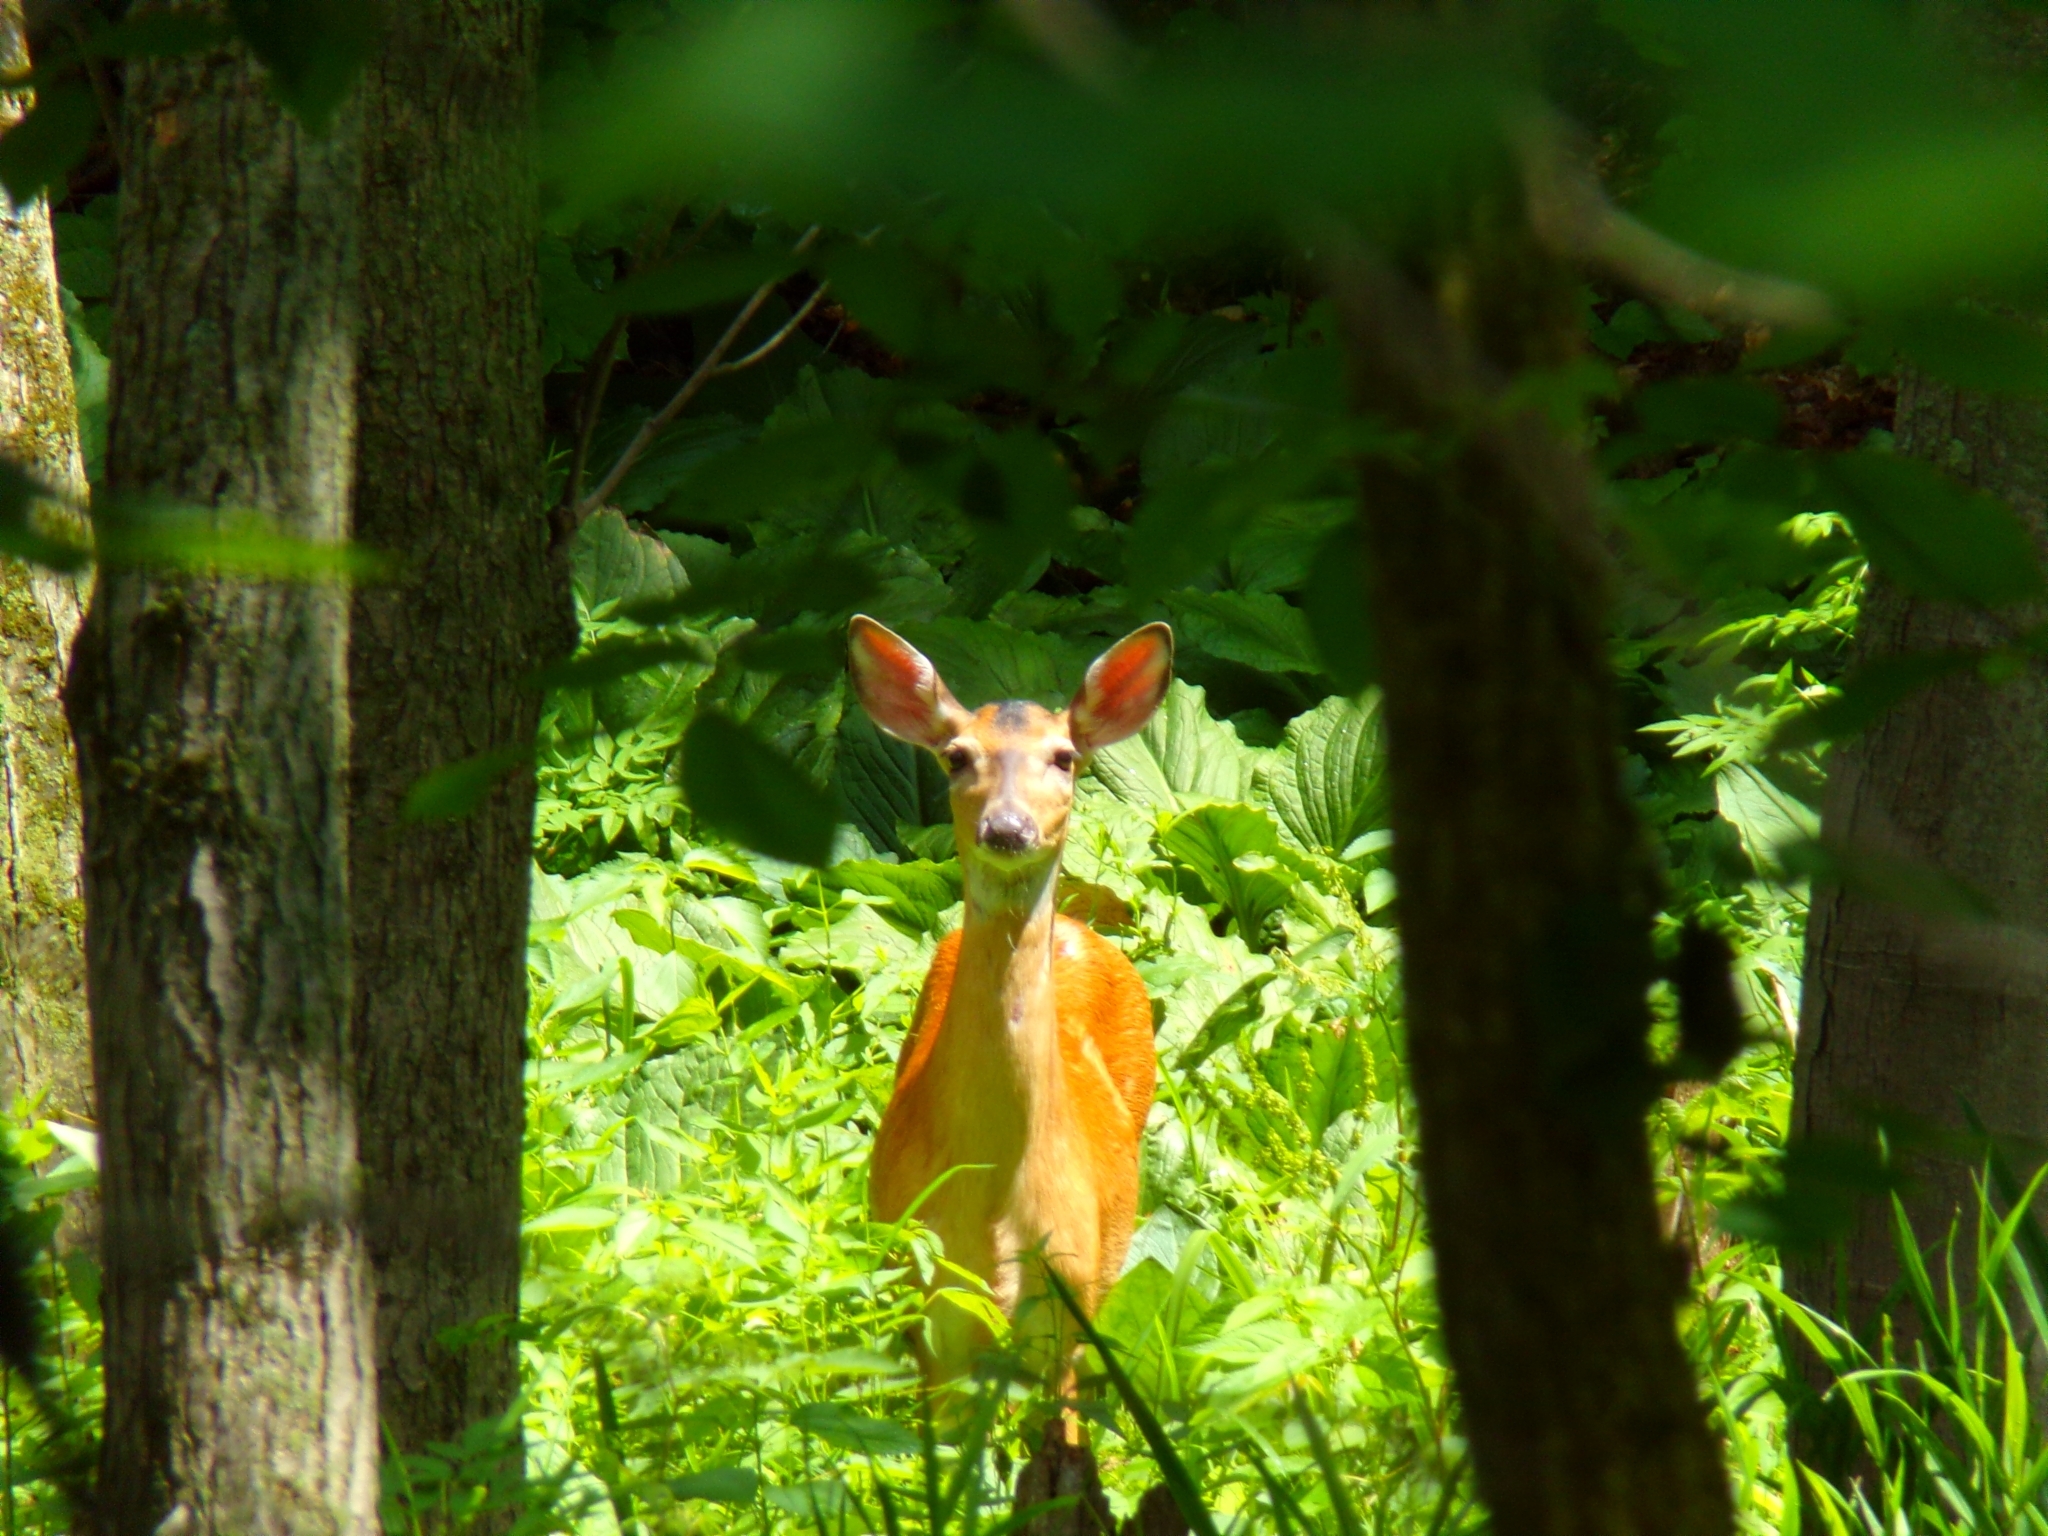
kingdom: Animalia
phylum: Chordata
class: Mammalia
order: Artiodactyla
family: Cervidae
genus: Odocoileus
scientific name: Odocoileus virginianus
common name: White-tailed deer
